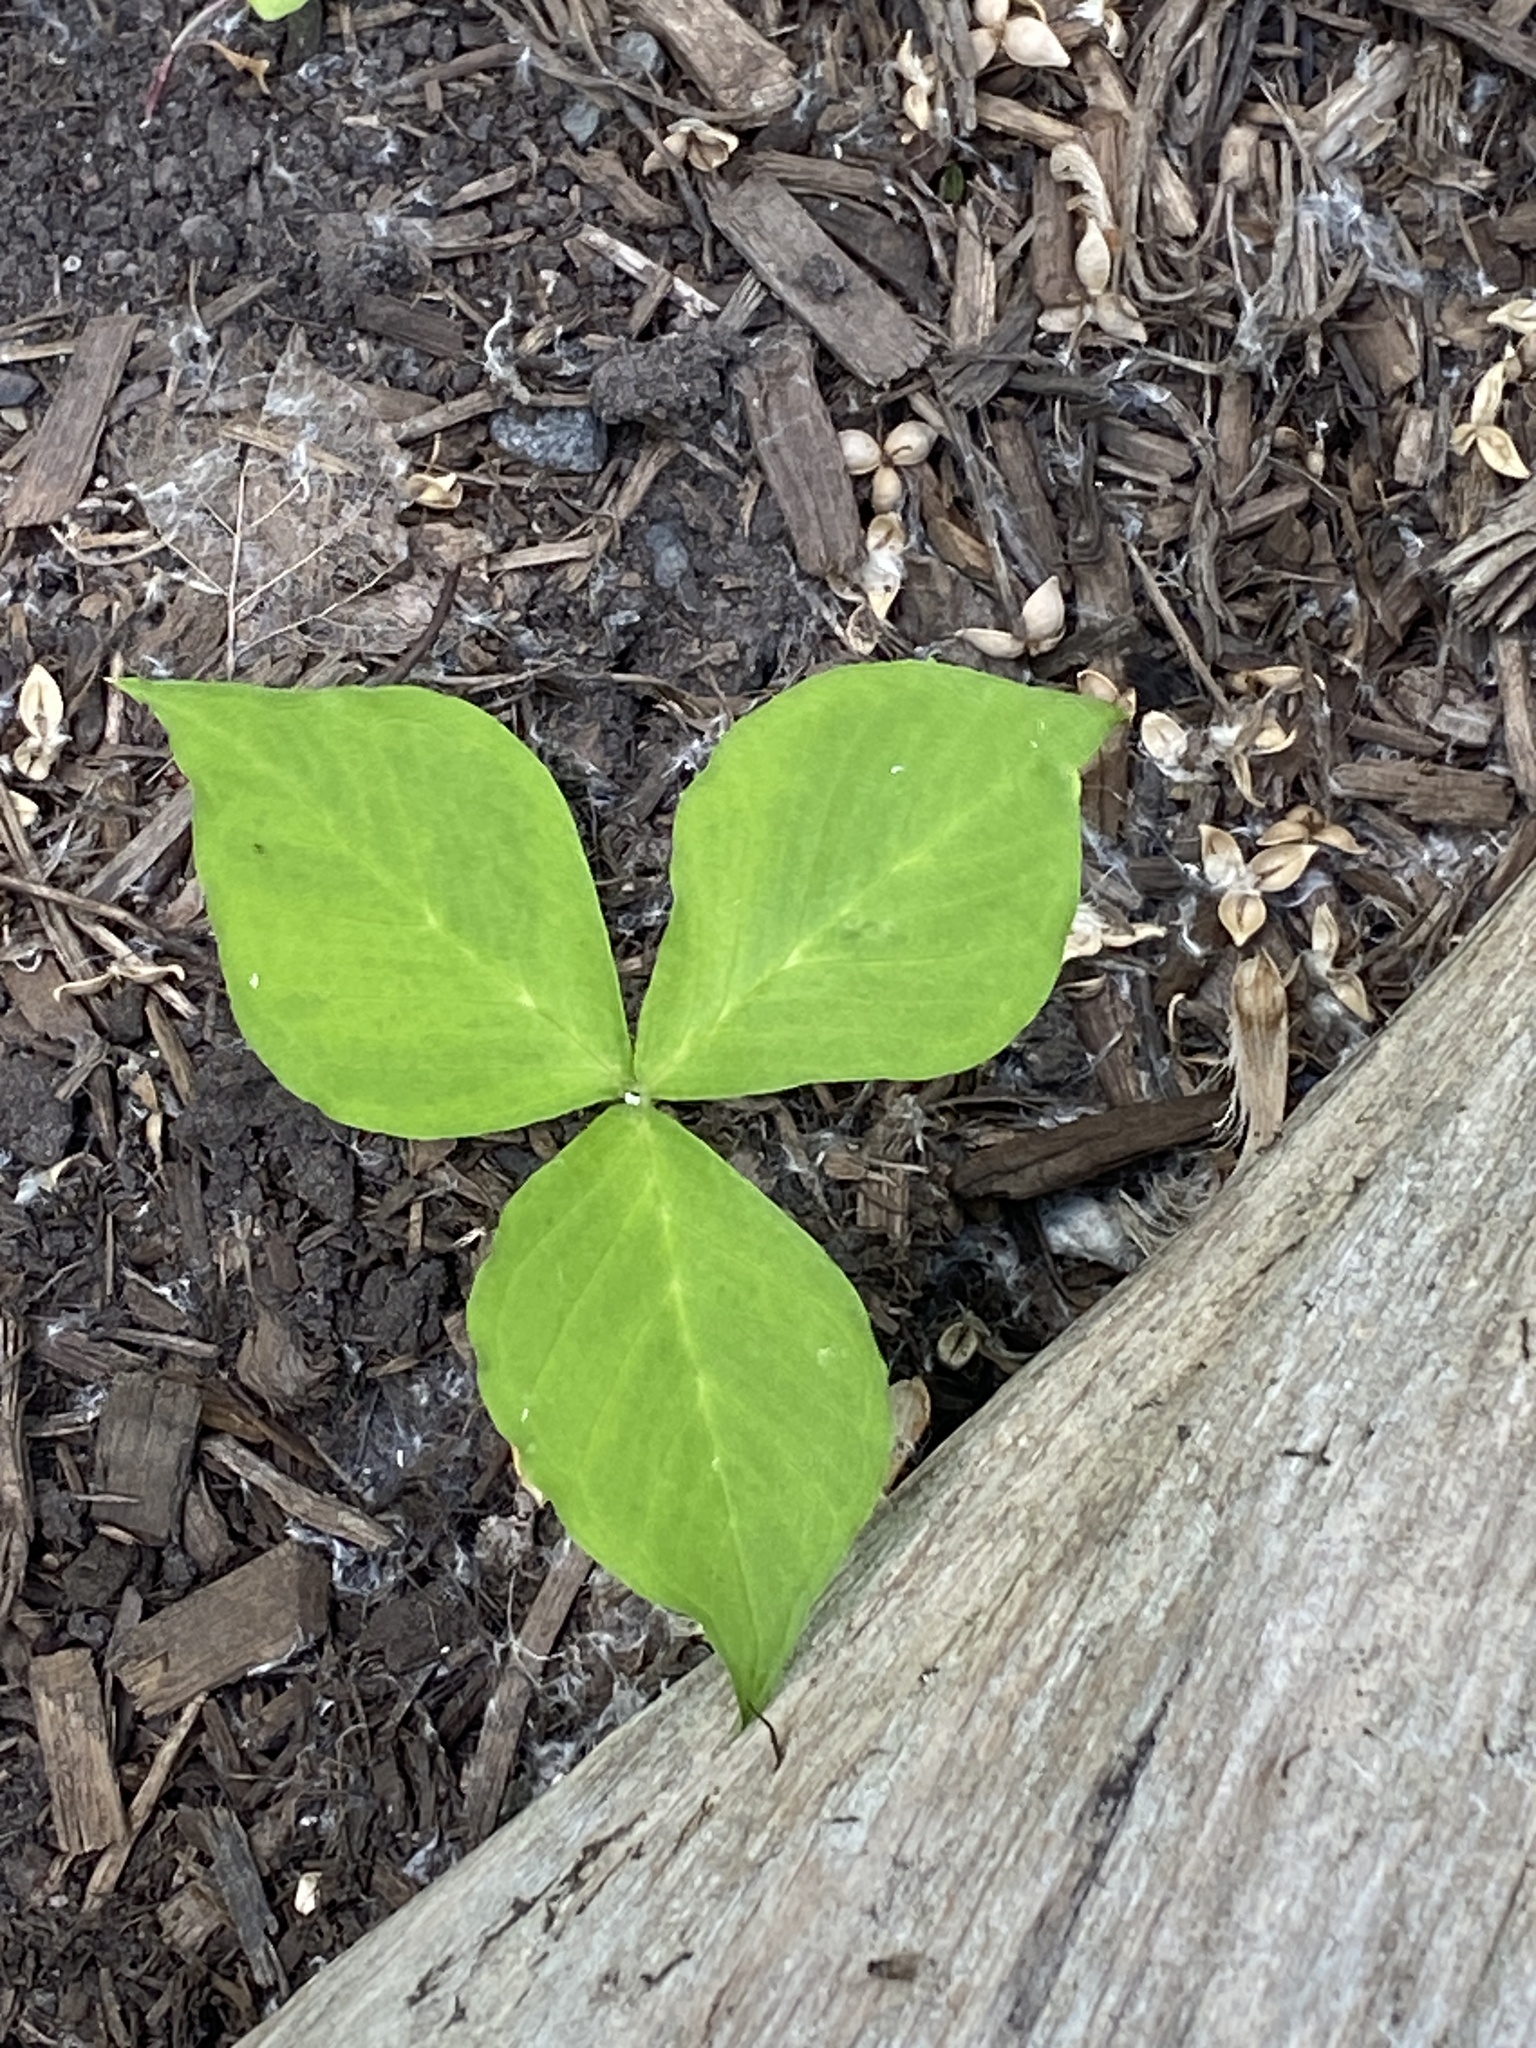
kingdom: Plantae
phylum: Tracheophyta
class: Liliopsida
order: Alismatales
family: Araceae
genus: Arisaema
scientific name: Arisaema triphyllum
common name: Jack-in-the-pulpit
